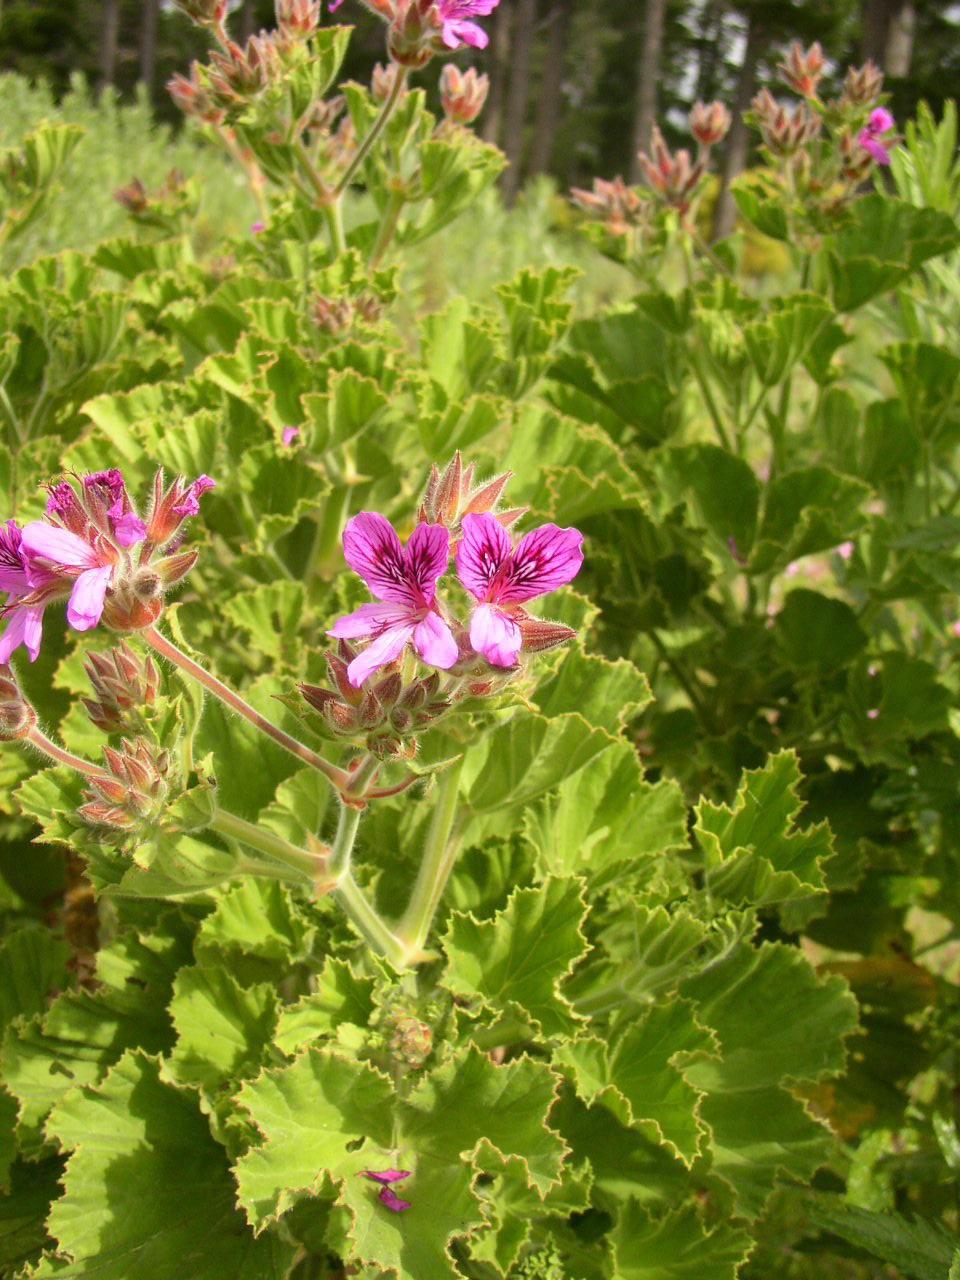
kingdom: Plantae
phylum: Tracheophyta
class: Magnoliopsida
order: Geraniales
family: Geraniaceae
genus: Pelargonium
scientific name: Pelargonium cucullatum
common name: Tree pelargonium
